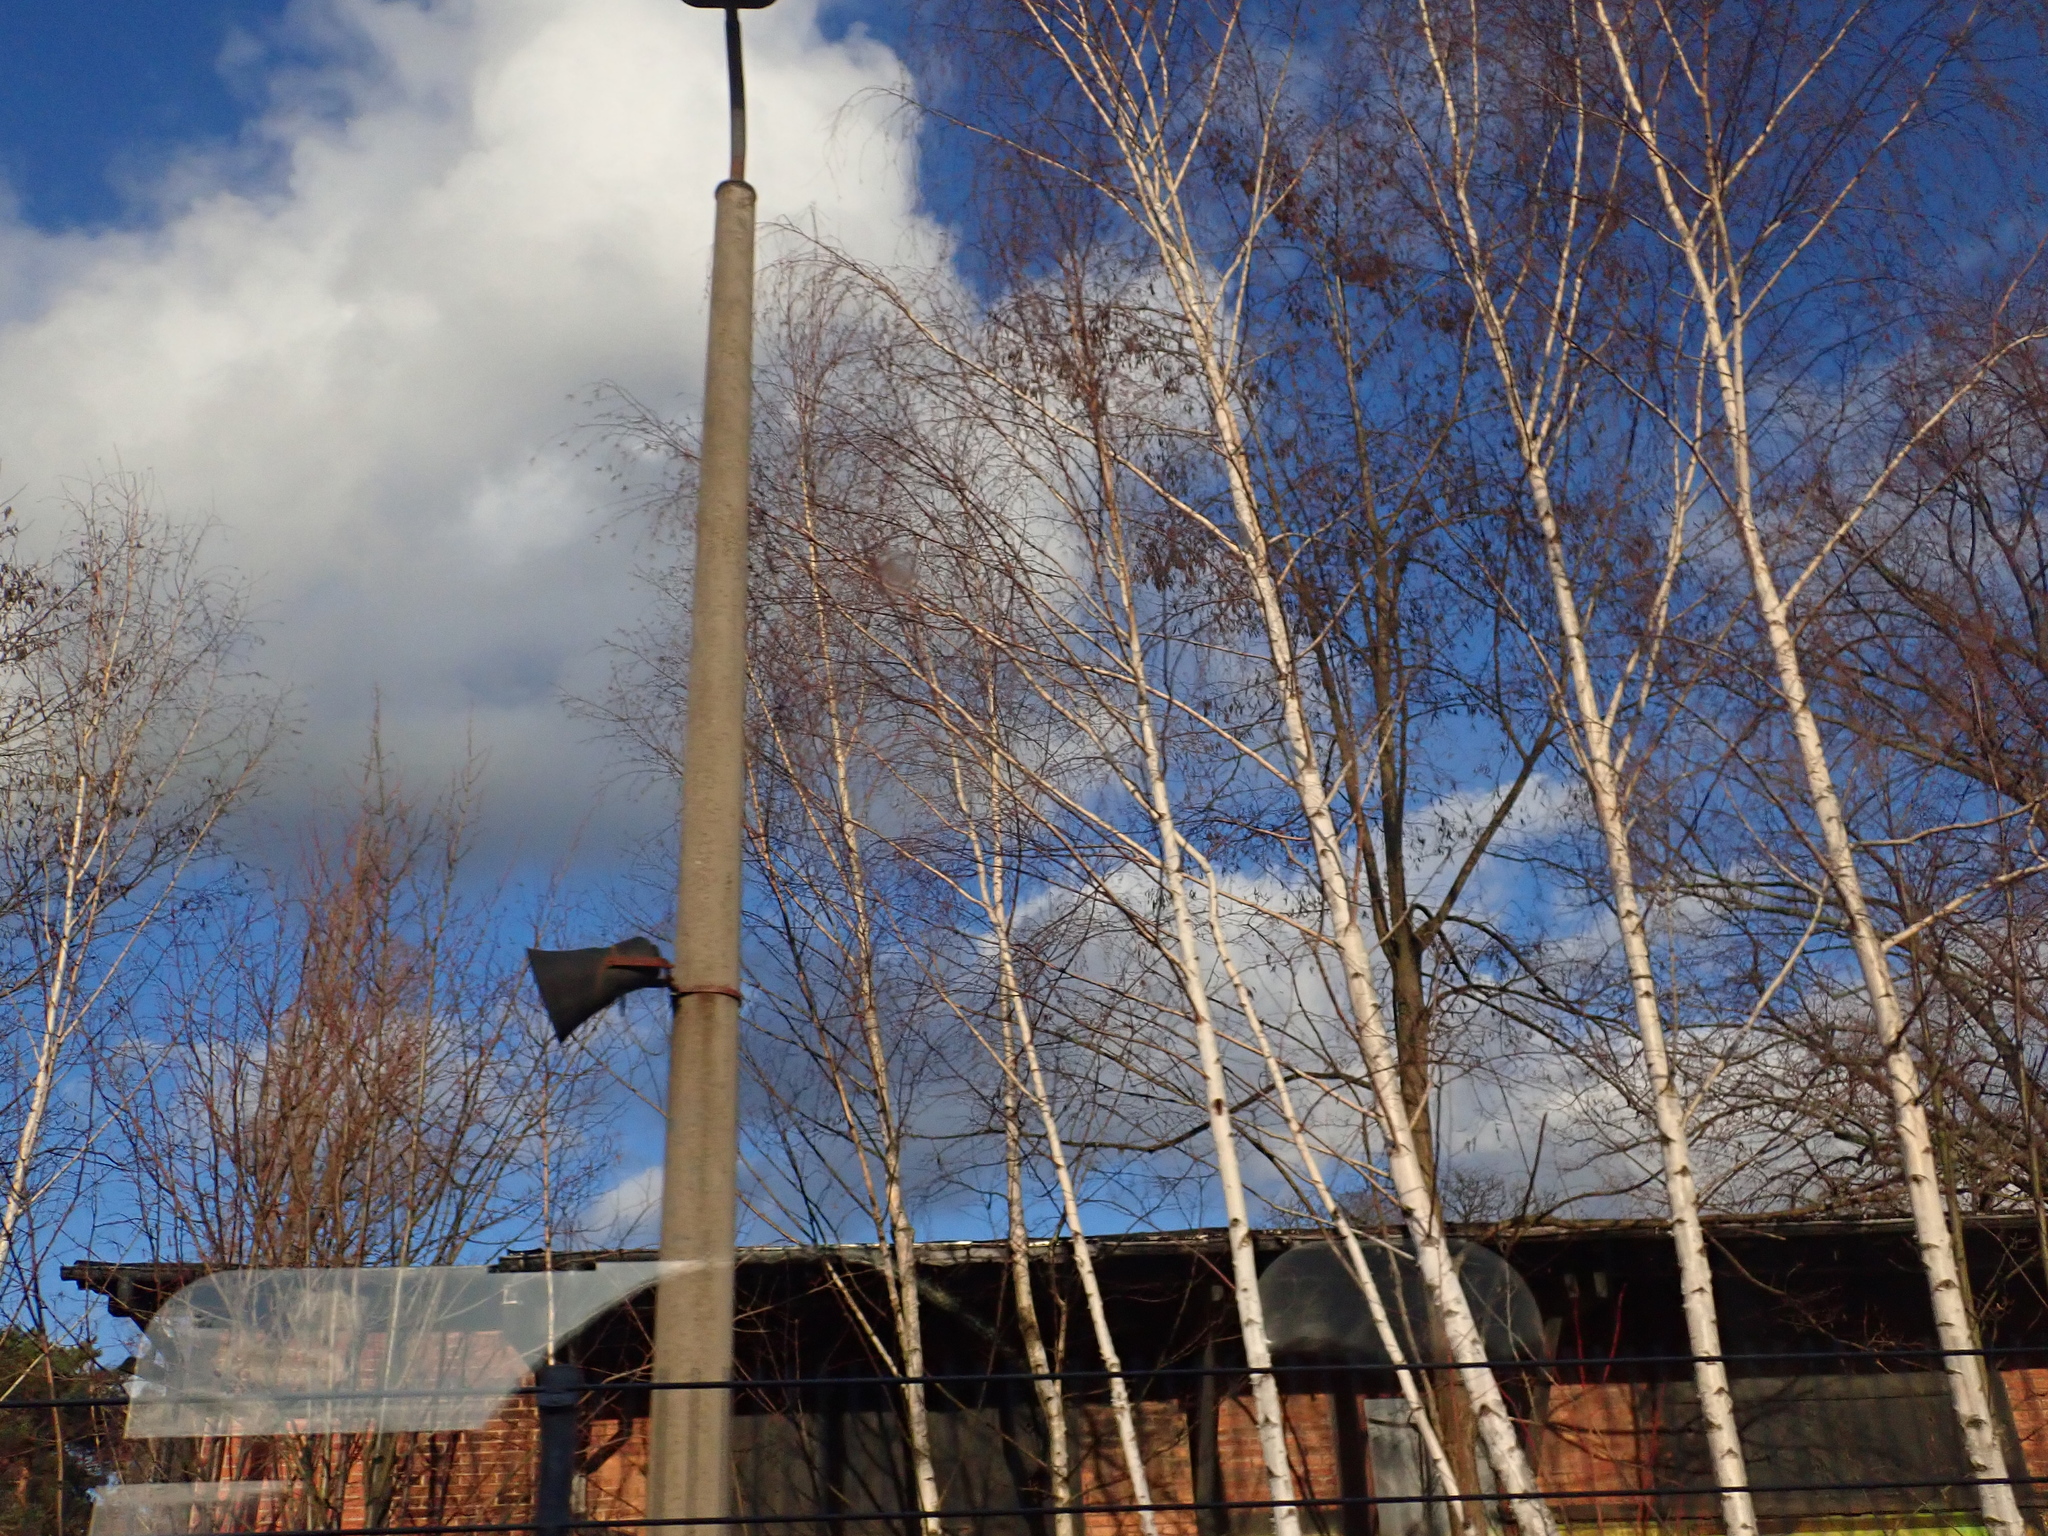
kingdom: Plantae
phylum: Tracheophyta
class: Magnoliopsida
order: Fagales
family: Betulaceae
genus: Betula
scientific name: Betula pendula
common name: Silver birch
